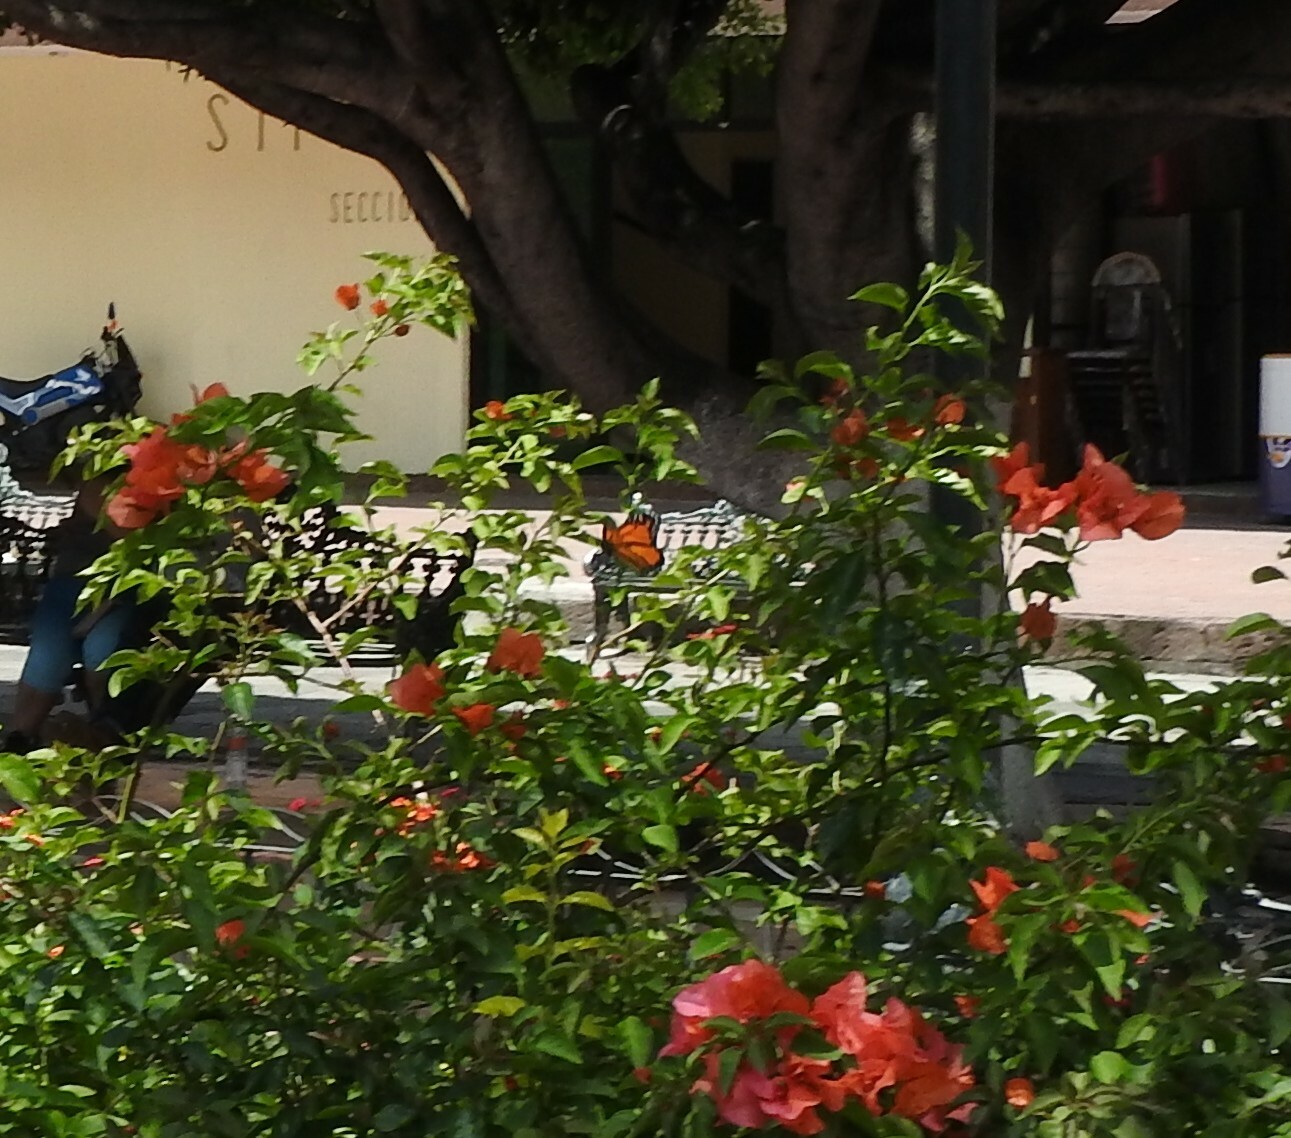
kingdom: Animalia
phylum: Arthropoda
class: Insecta
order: Lepidoptera
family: Nymphalidae
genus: Danaus
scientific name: Danaus plexippus
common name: Monarch
